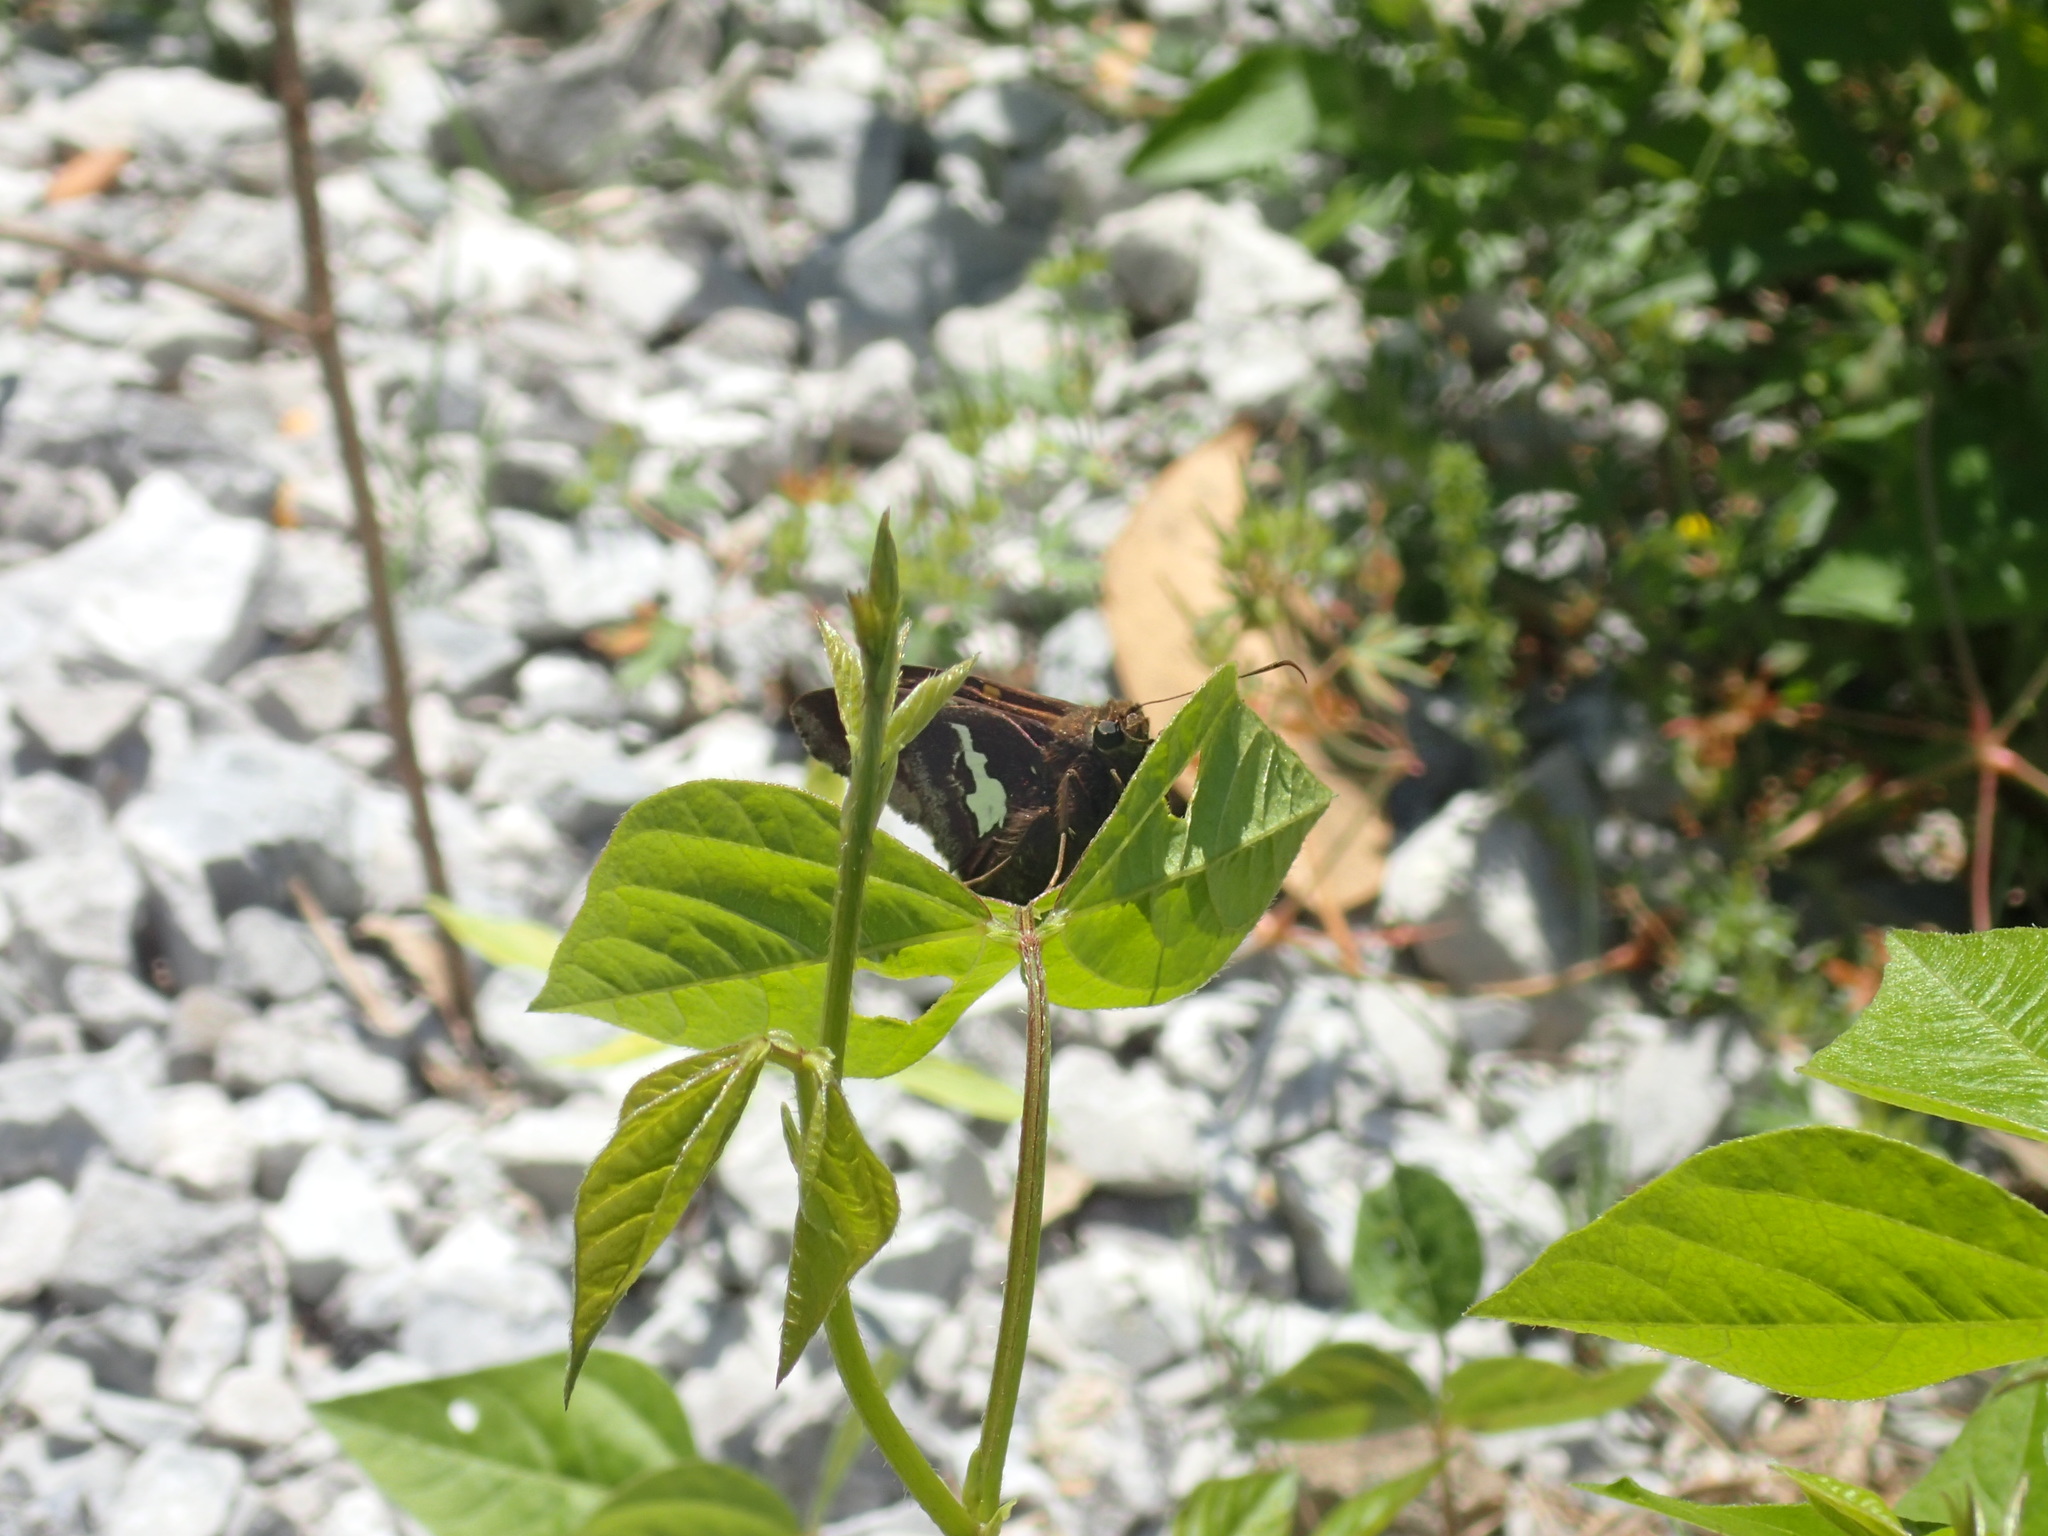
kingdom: Animalia
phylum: Arthropoda
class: Insecta
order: Lepidoptera
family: Hesperiidae
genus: Epargyreus
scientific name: Epargyreus clarus
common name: Silver-spotted skipper
